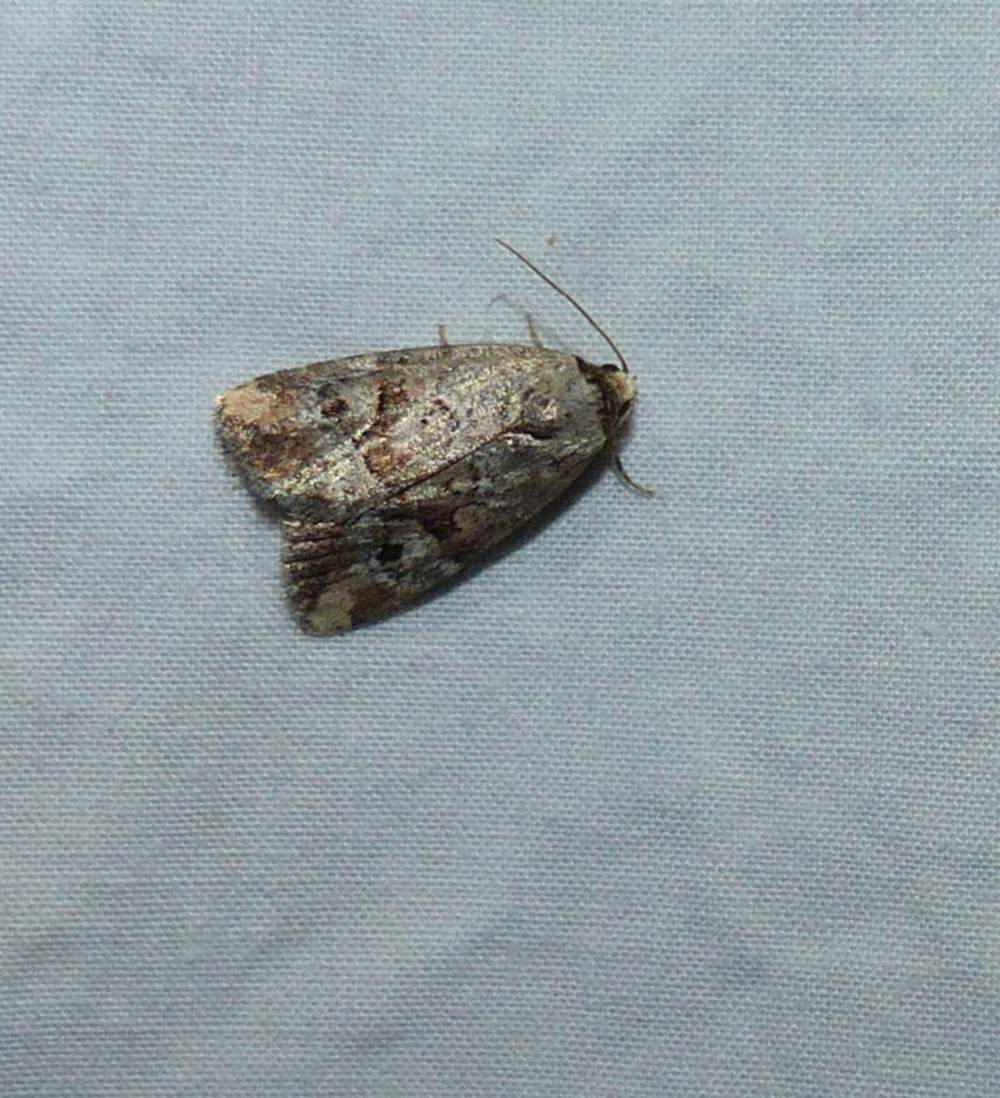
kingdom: Animalia
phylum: Arthropoda
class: Insecta
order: Lepidoptera
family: Noctuidae
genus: Elaphria
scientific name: Elaphria alapallida
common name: Pale-winged midget
